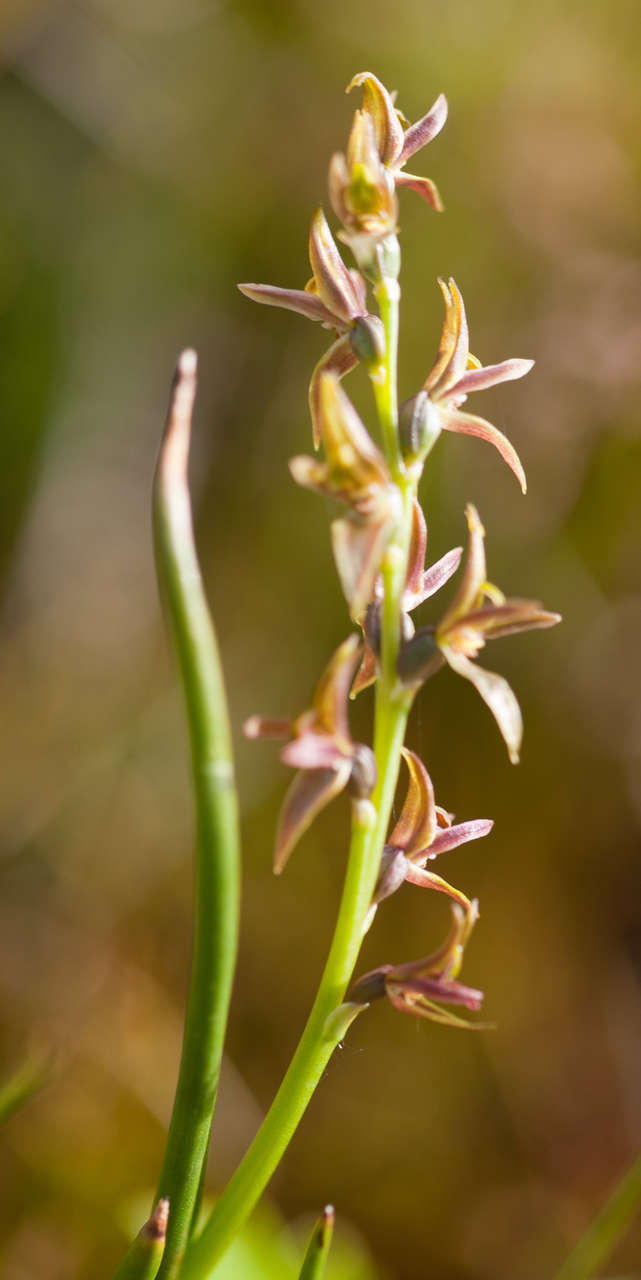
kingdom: Plantae
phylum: Tracheophyta
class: Liliopsida
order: Asparagales
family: Orchidaceae
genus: Prasophyllum
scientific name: Prasophyllum alpinum
